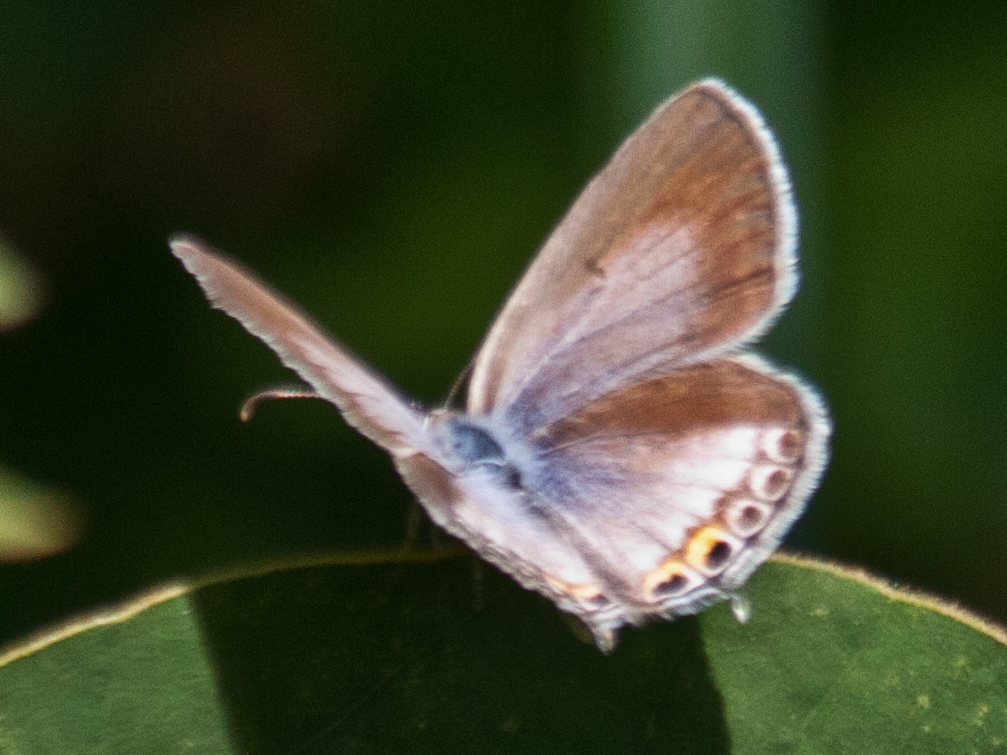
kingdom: Animalia
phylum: Arthropoda
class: Insecta
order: Lepidoptera
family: Lycaenidae
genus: Euchrysops
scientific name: Euchrysops cnejus
